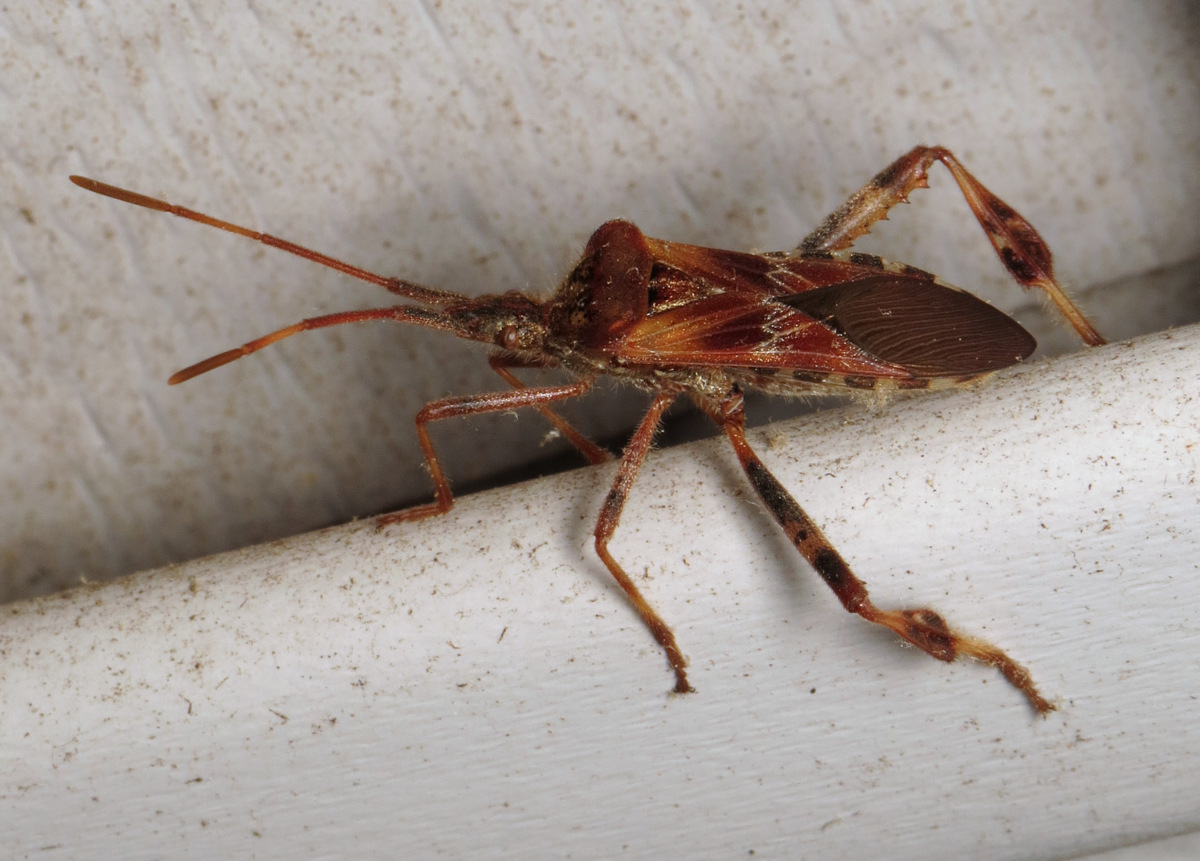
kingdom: Animalia
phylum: Arthropoda
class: Insecta
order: Hemiptera
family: Coreidae
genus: Leptoglossus
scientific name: Leptoglossus occidentalis
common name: Western conifer-seed bug
